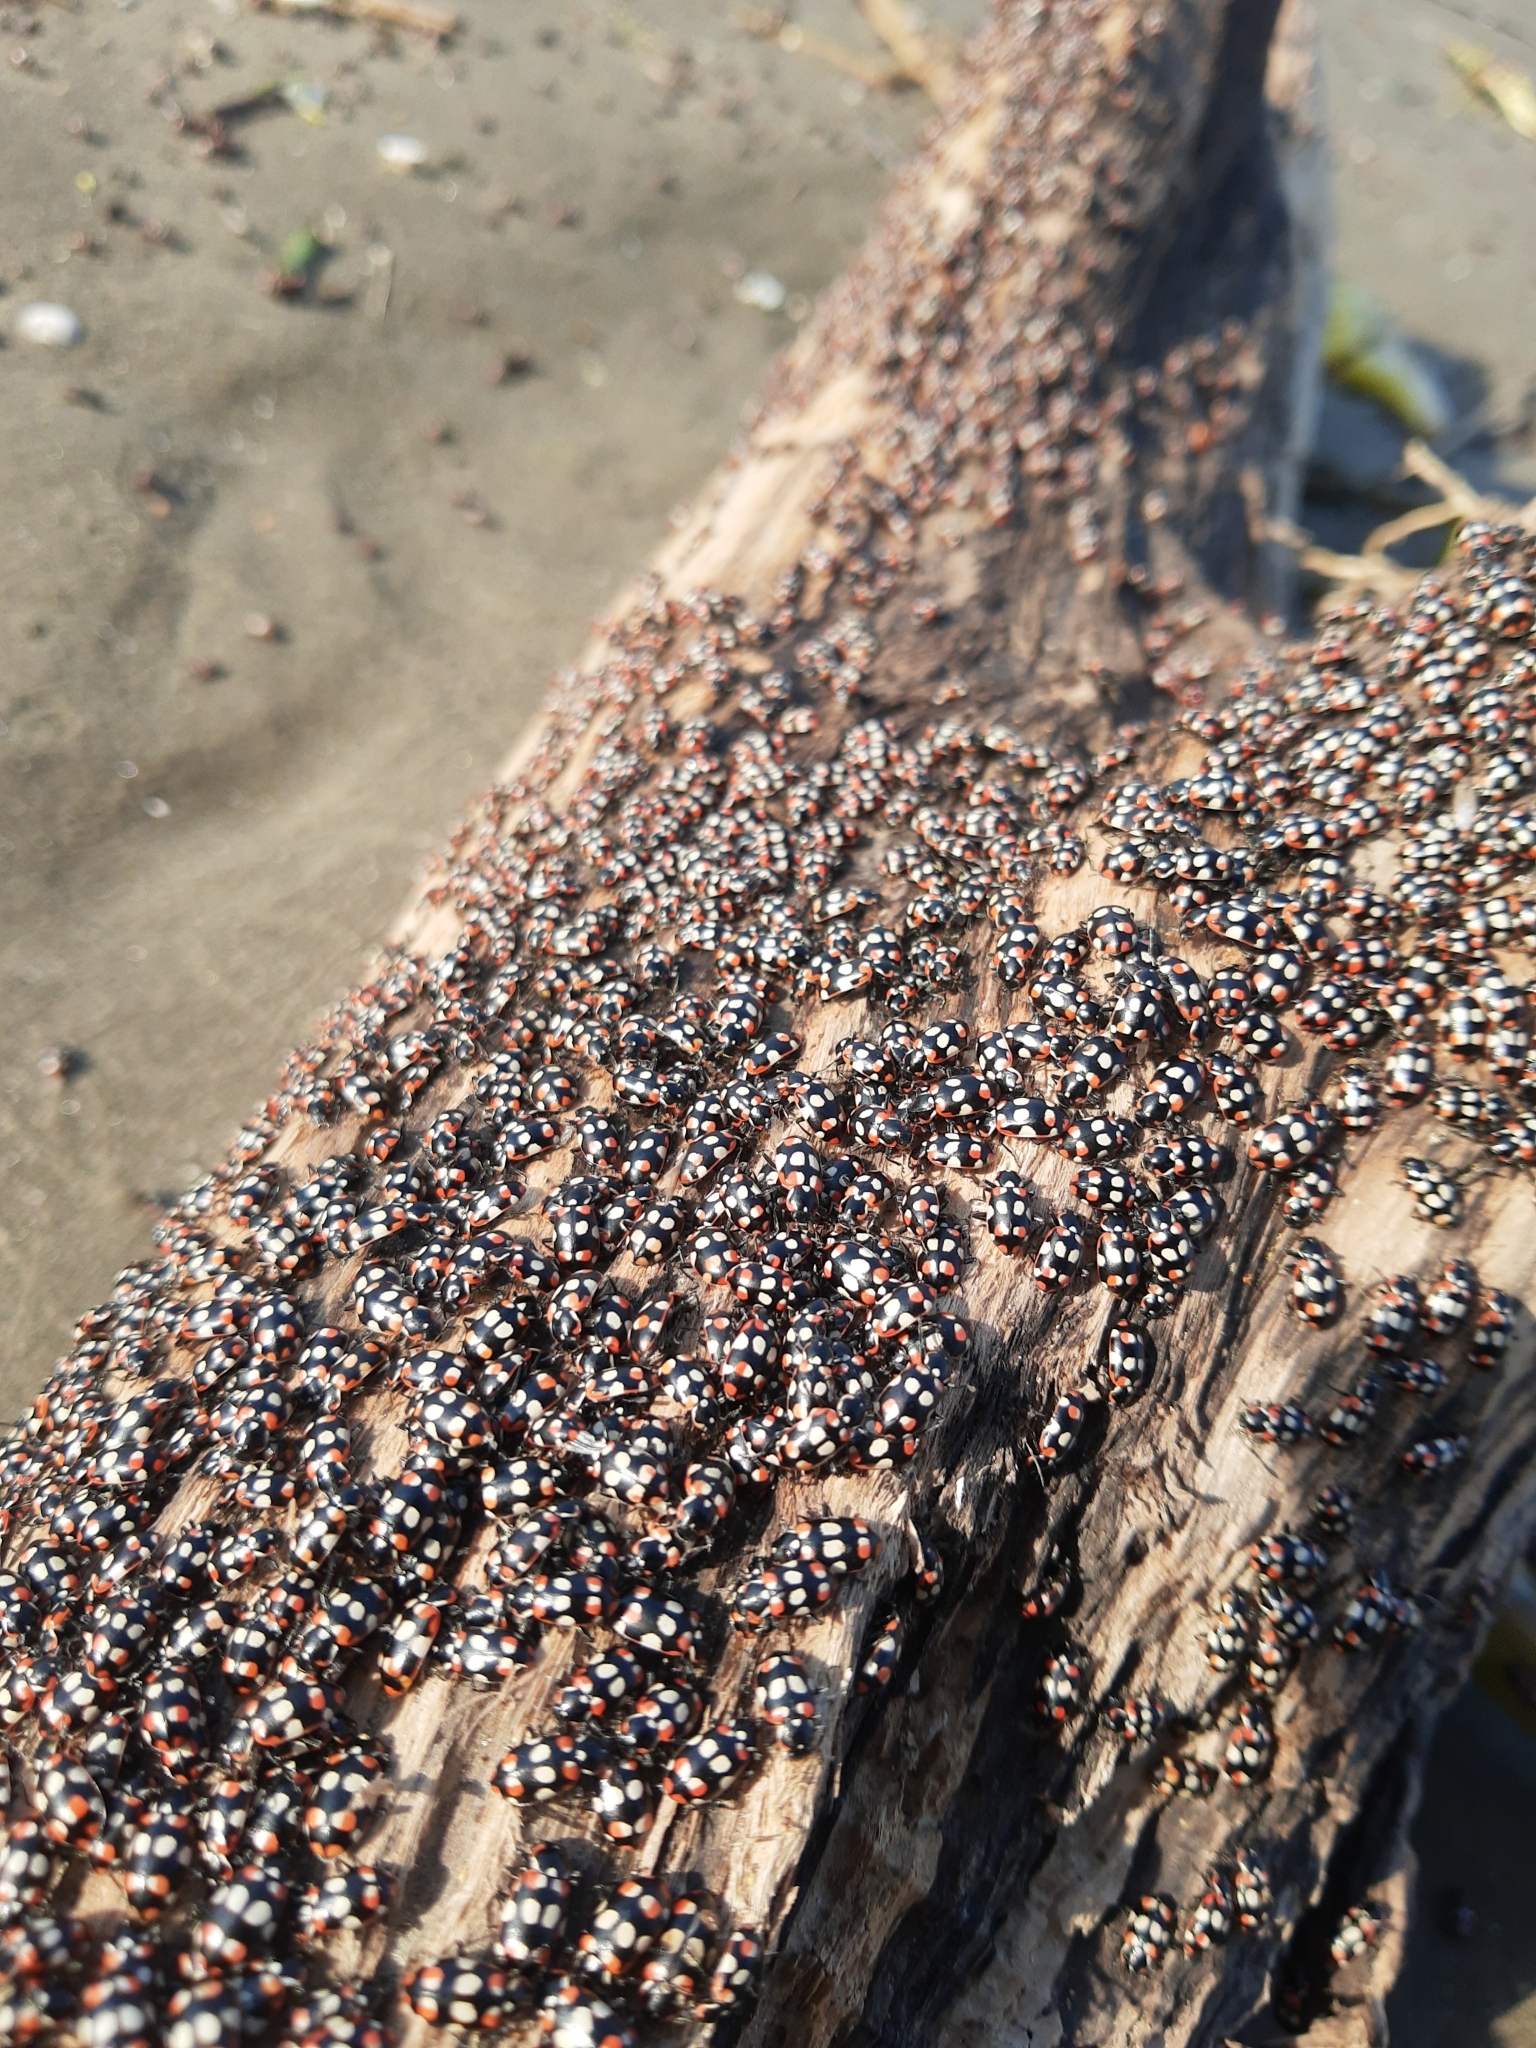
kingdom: Animalia
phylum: Arthropoda
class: Insecta
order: Coleoptera
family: Coccinellidae
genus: Eriopis
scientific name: Eriopis connexa
